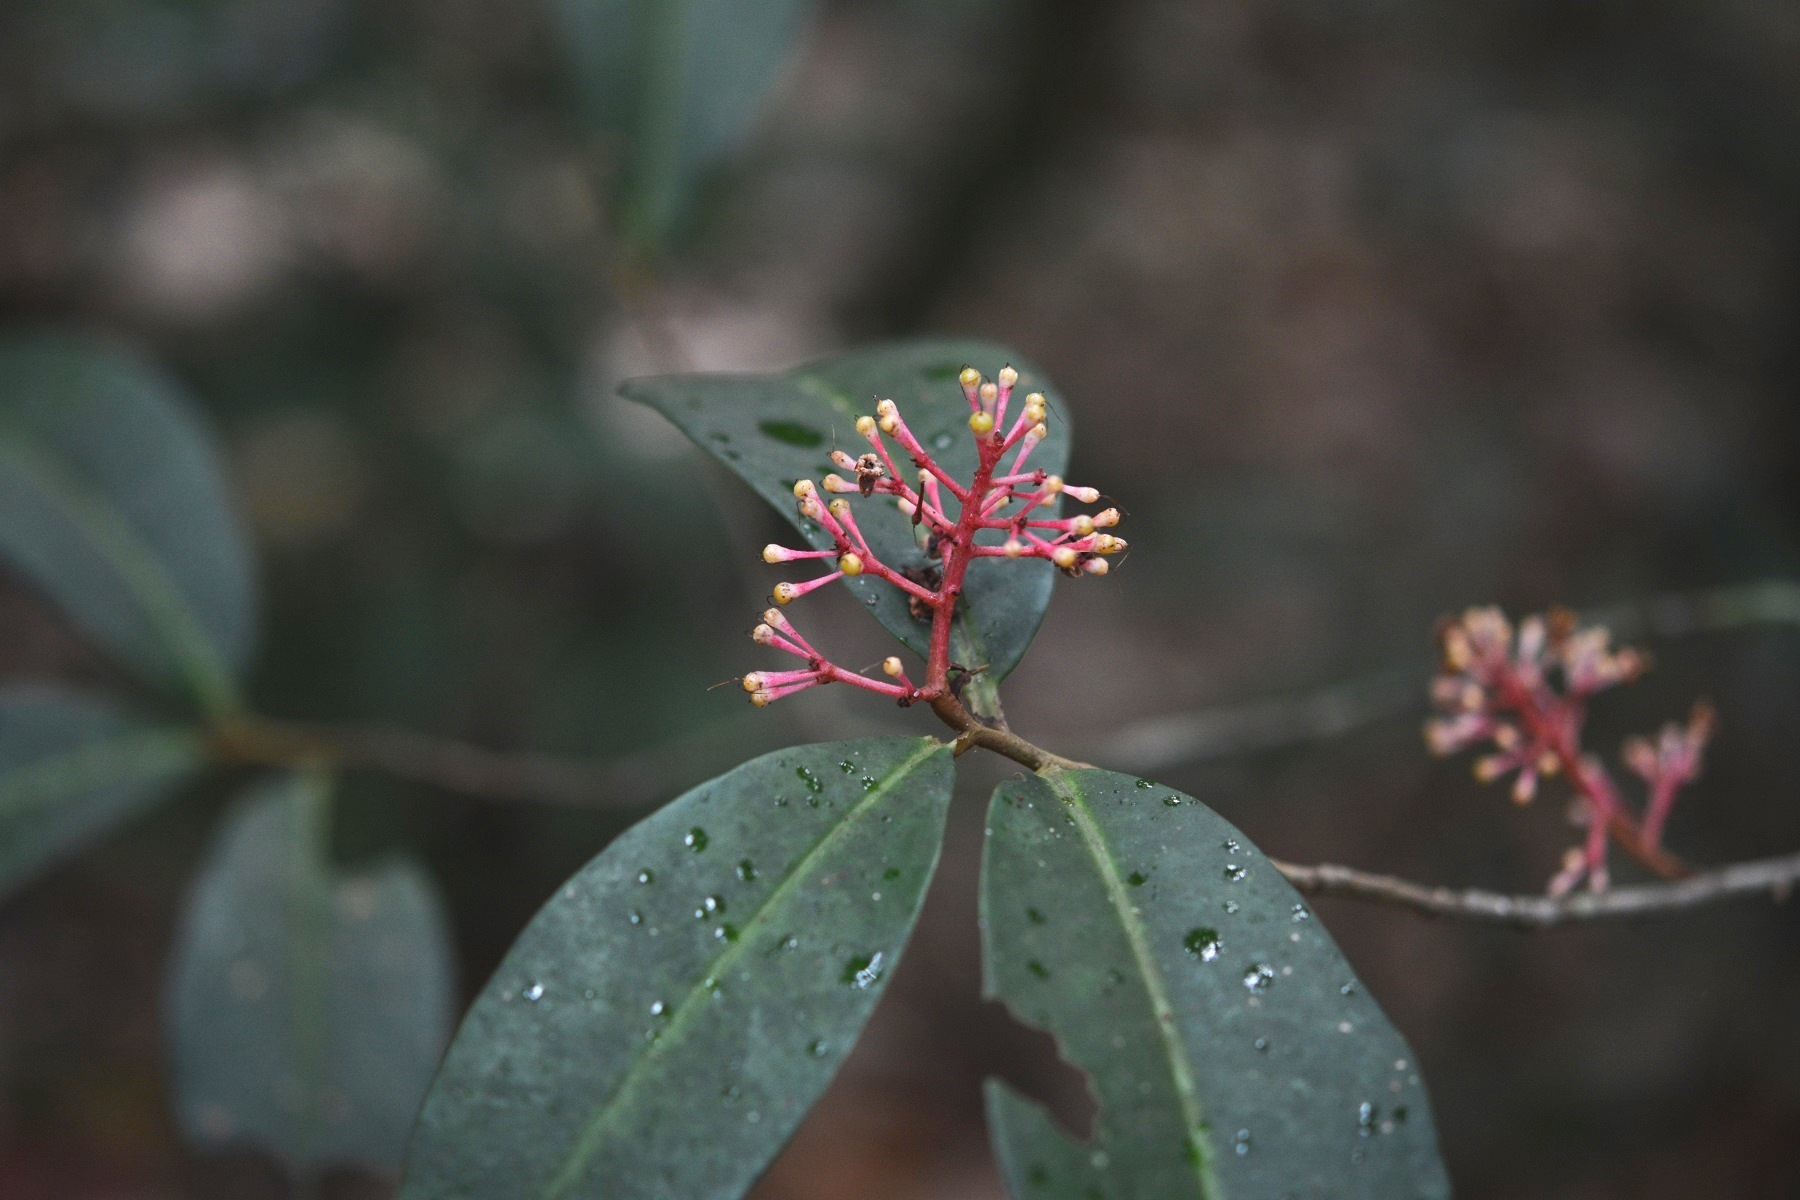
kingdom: Plantae
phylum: Tracheophyta
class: Magnoliopsida
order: Ericales
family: Primulaceae
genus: Gentlea
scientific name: Gentlea micranthera
